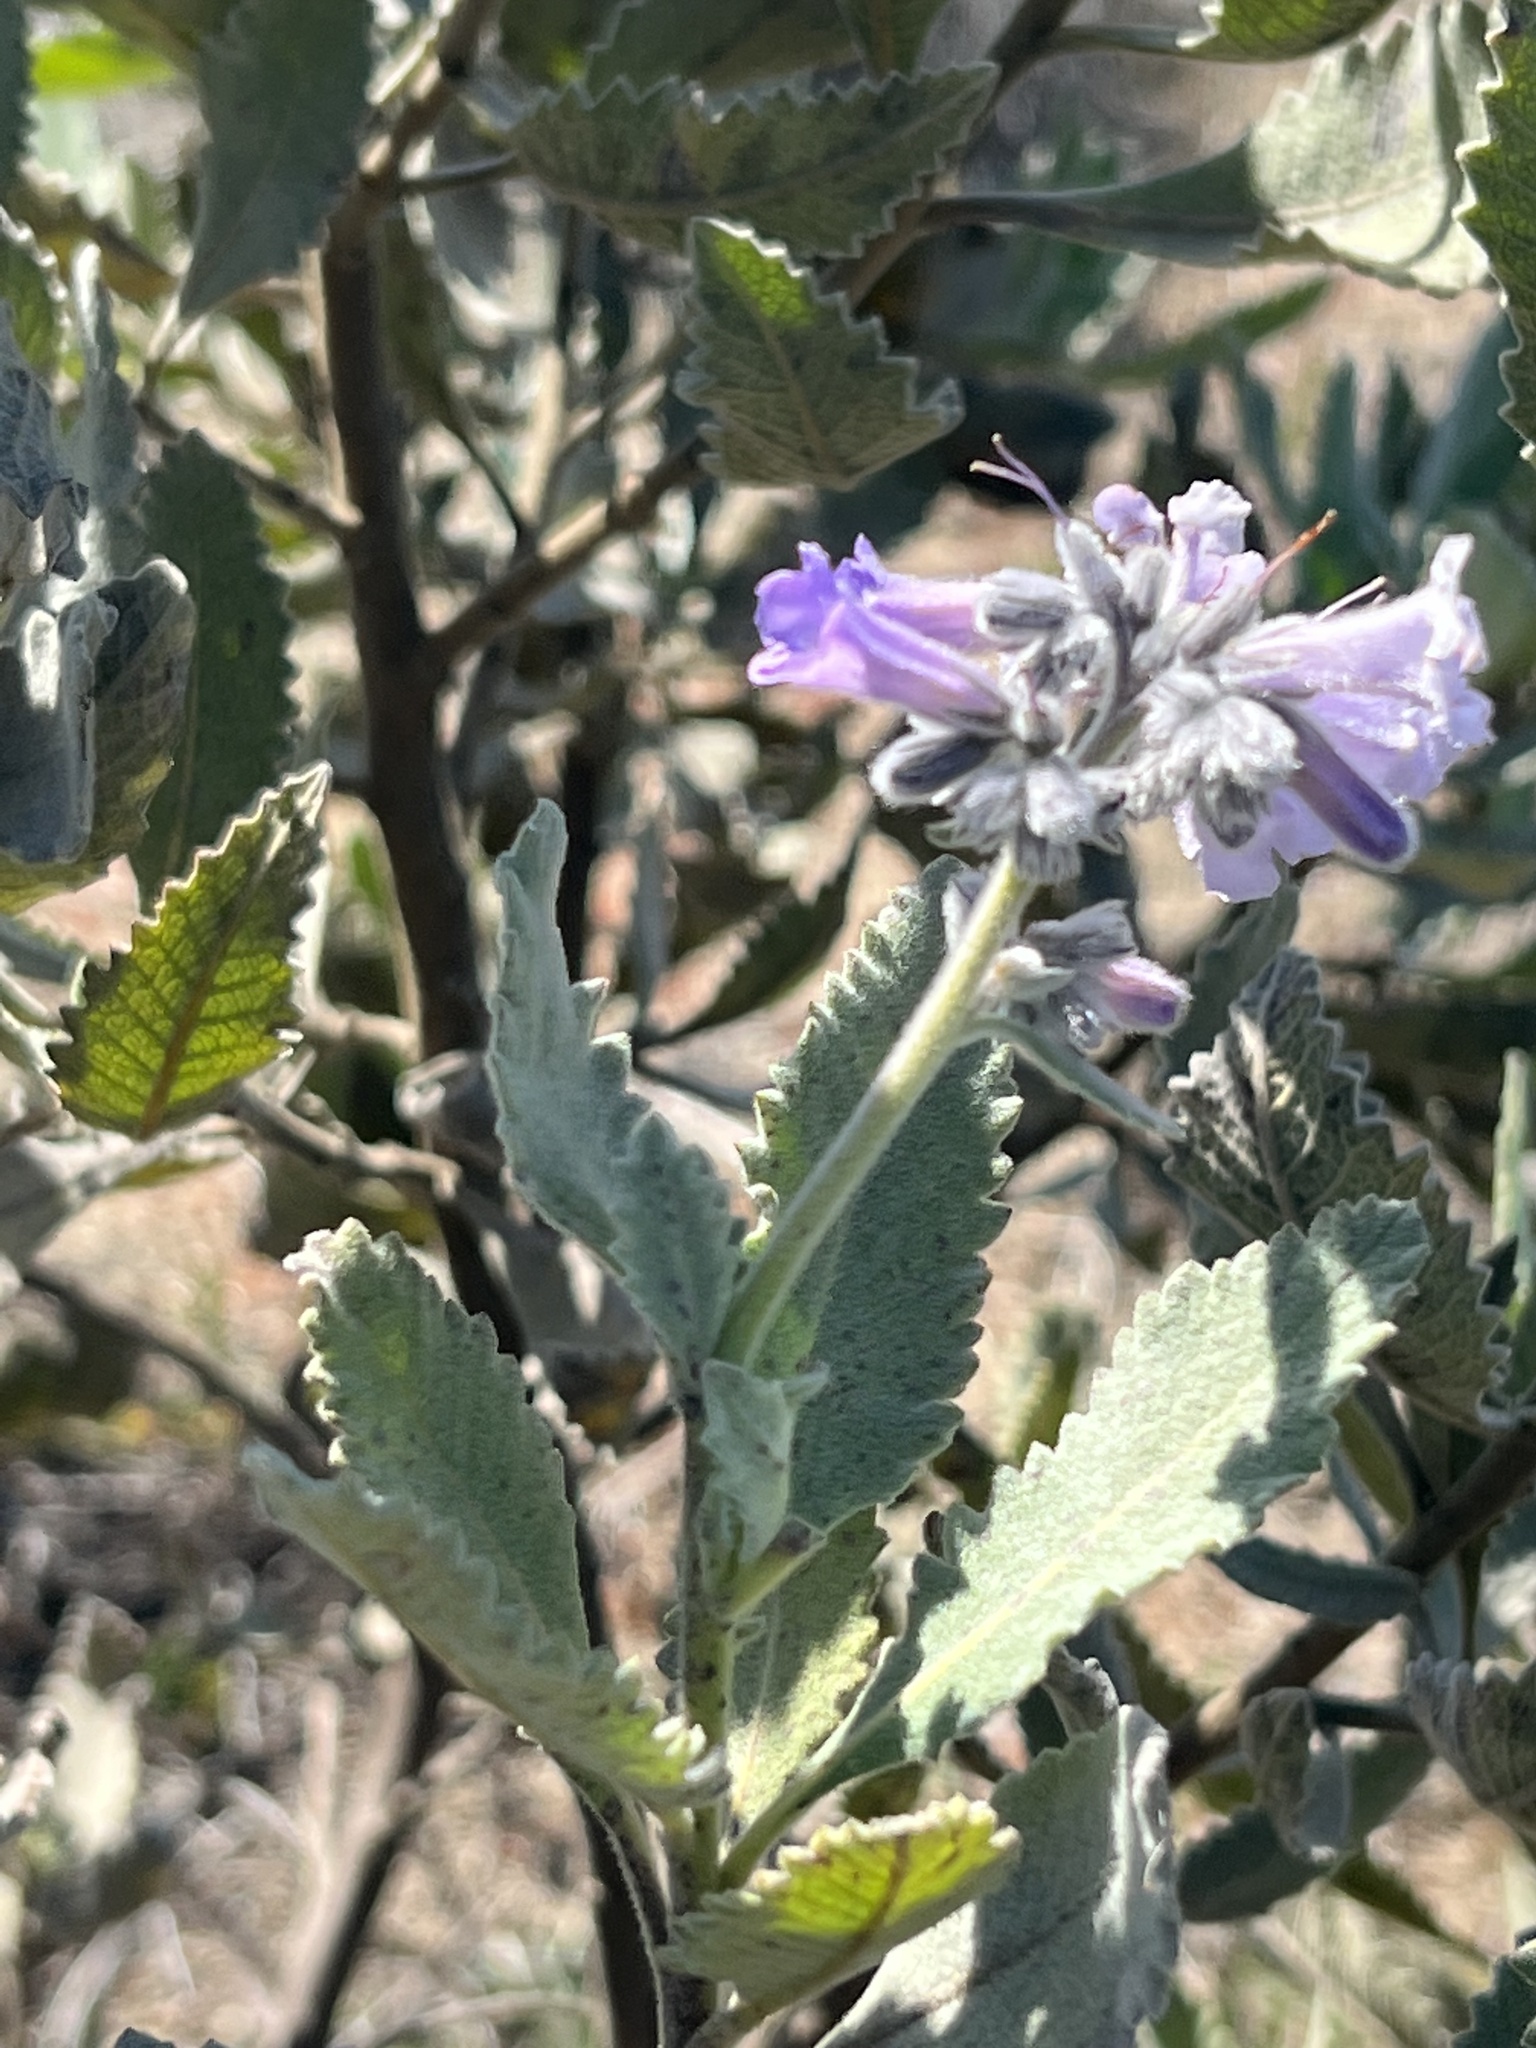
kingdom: Plantae
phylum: Tracheophyta
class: Magnoliopsida
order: Boraginales
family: Namaceae
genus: Eriodictyon
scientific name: Eriodictyon crassifolium
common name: Thick-leaf yerba-santa
